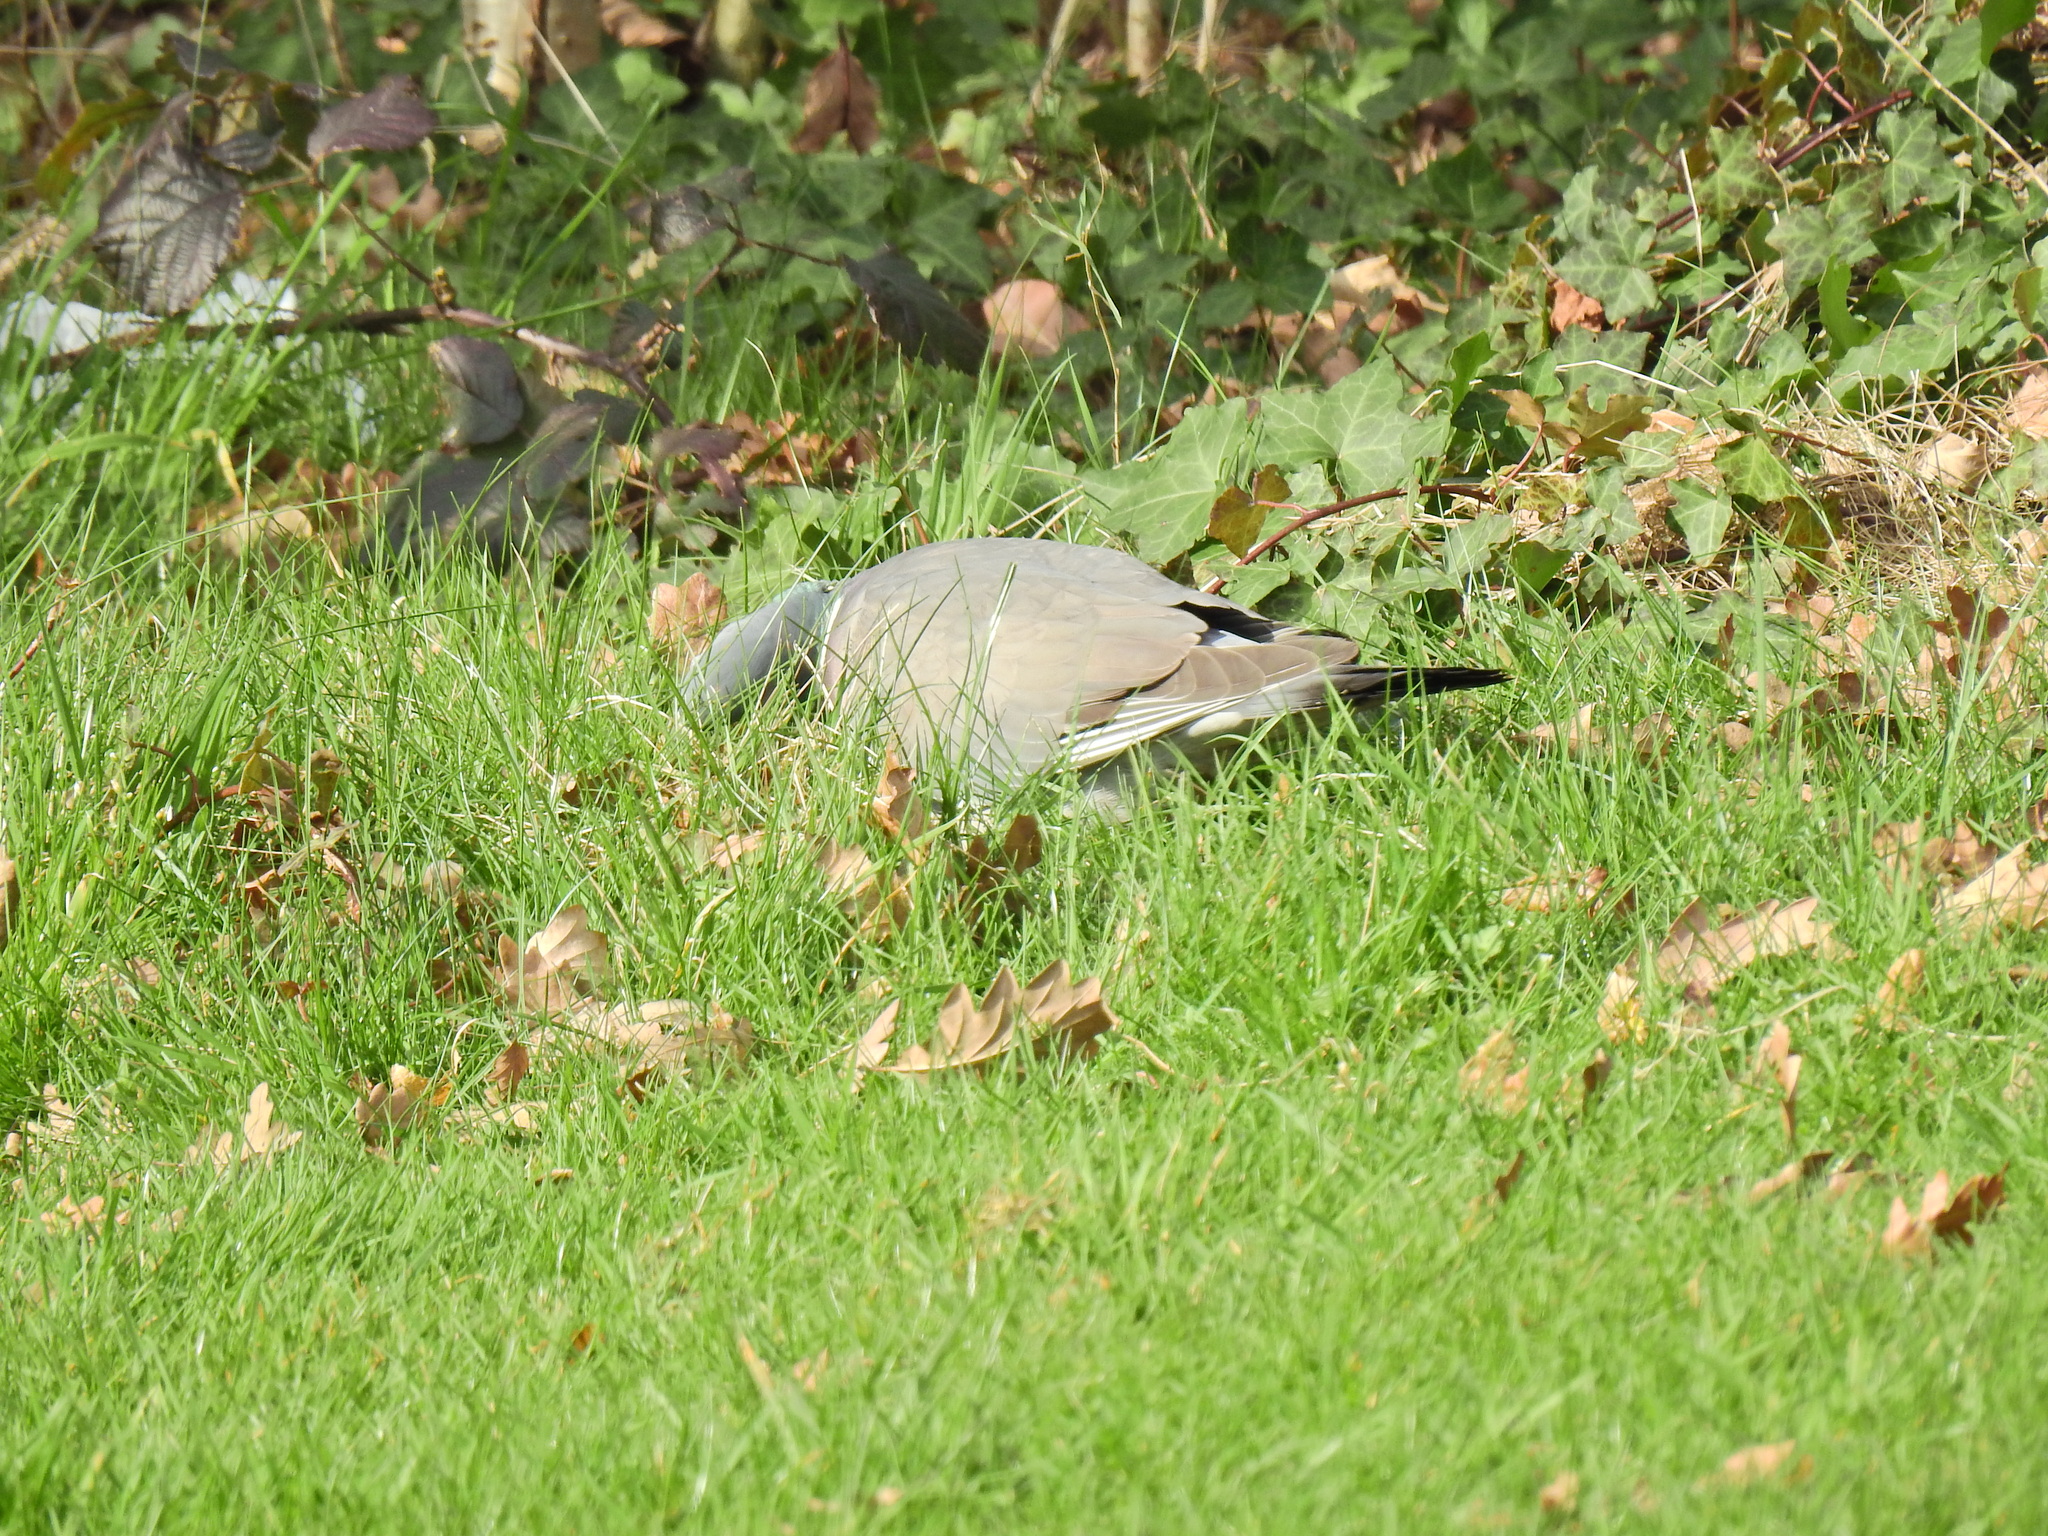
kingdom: Animalia
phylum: Chordata
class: Aves
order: Columbiformes
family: Columbidae
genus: Columba
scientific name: Columba palumbus
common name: Common wood pigeon
